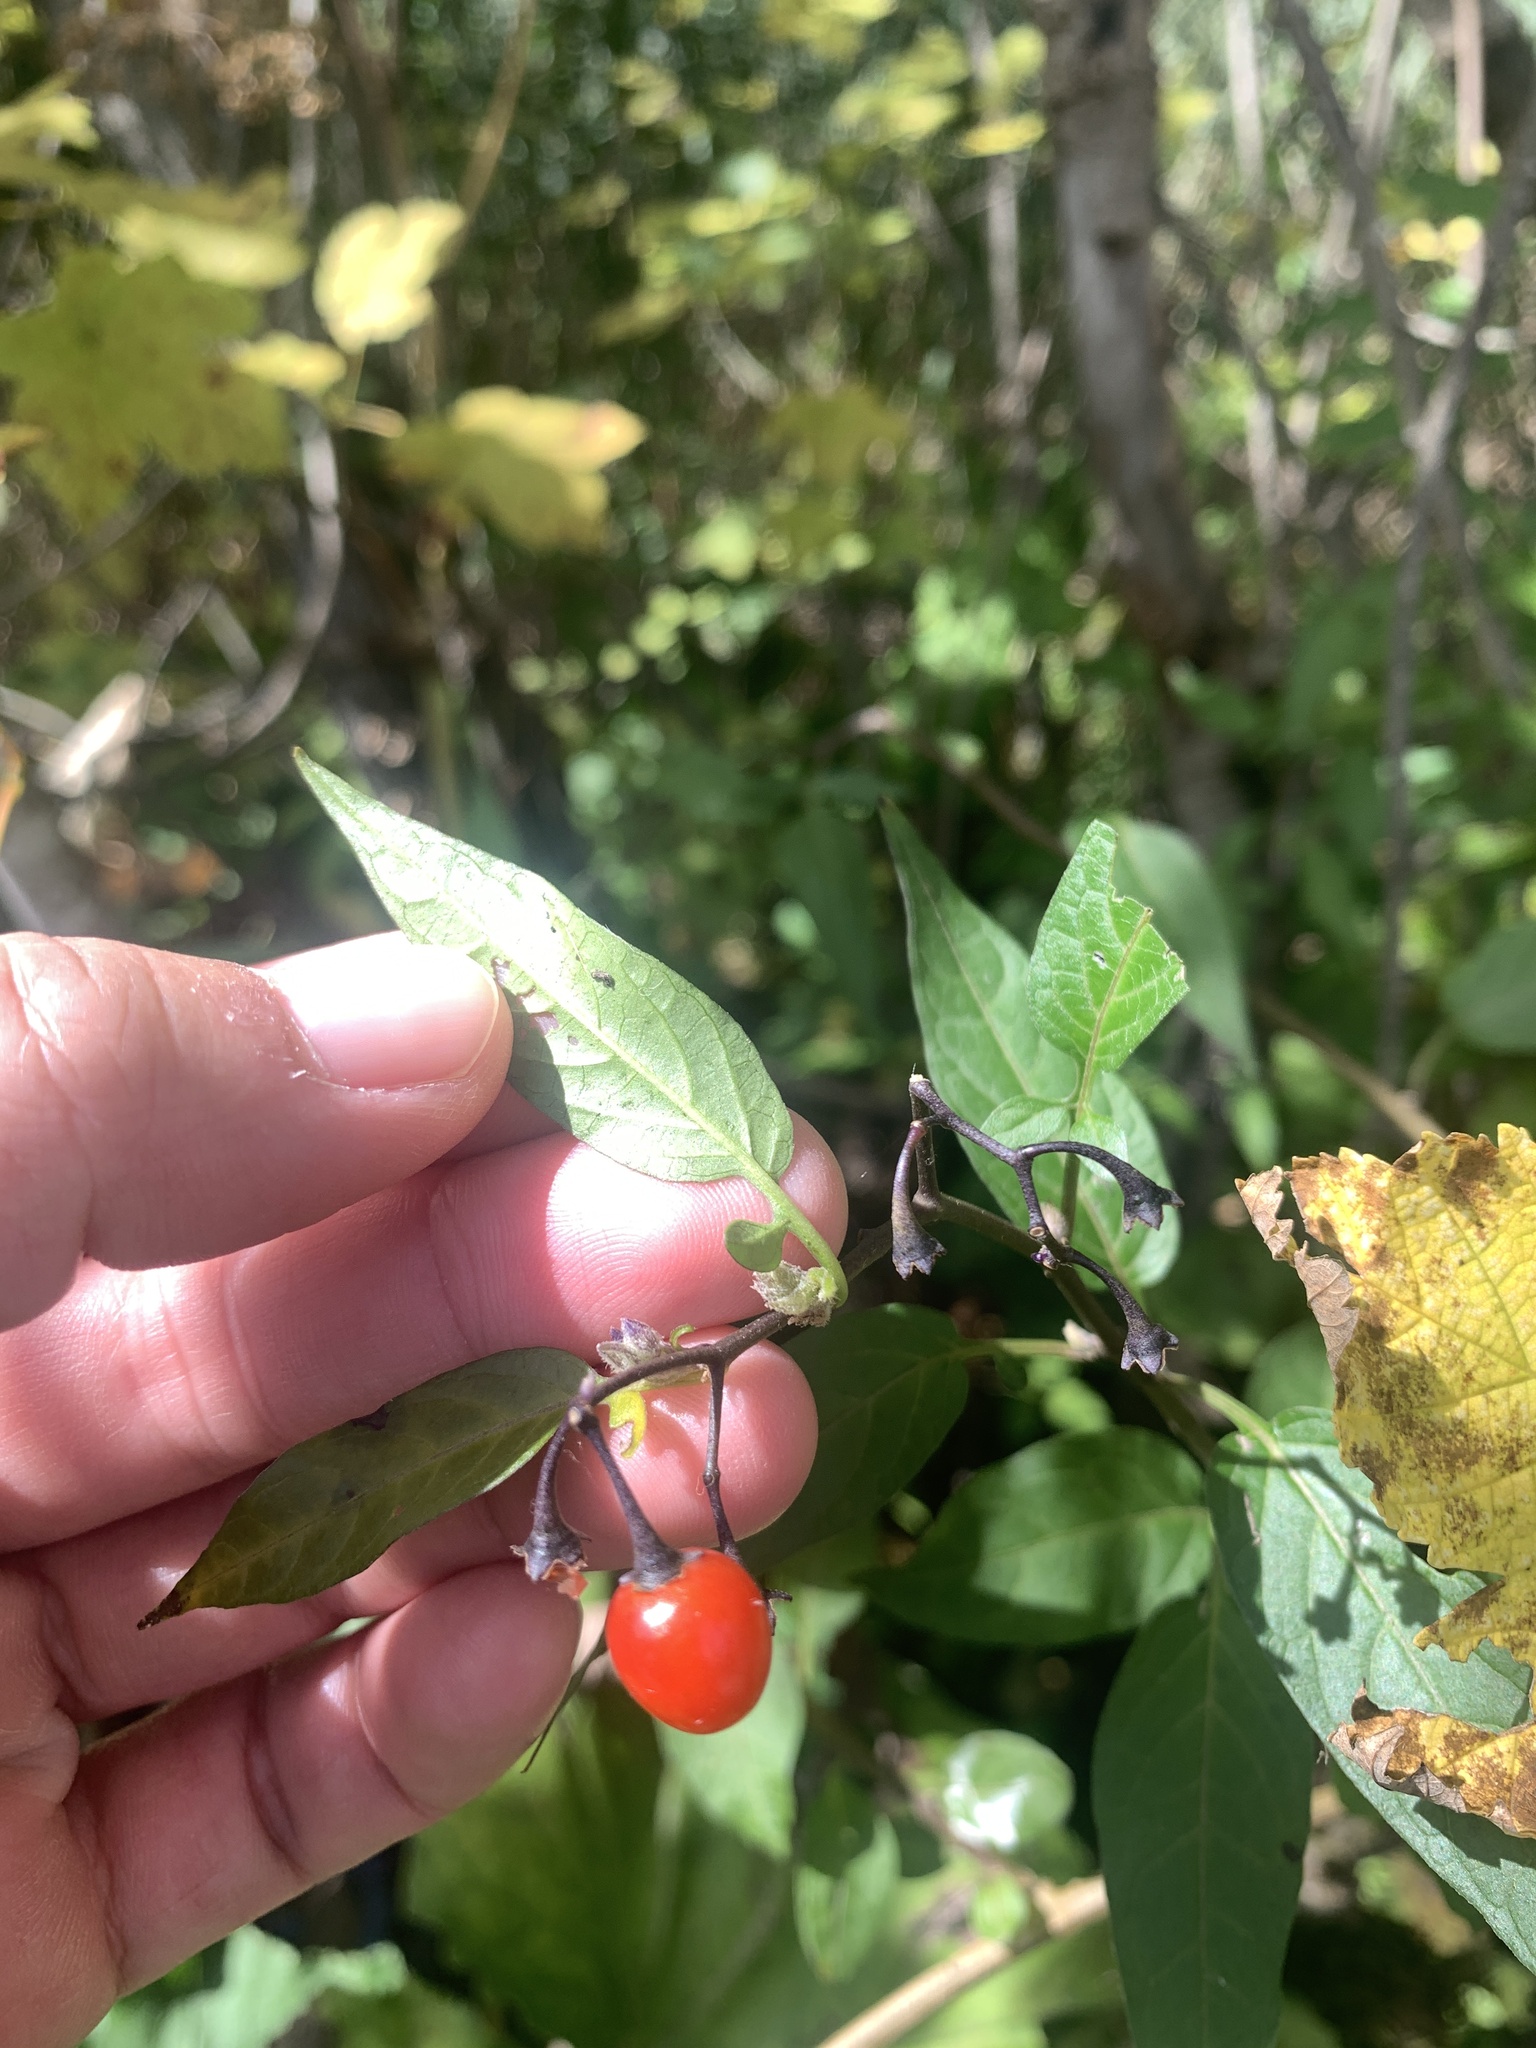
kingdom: Plantae
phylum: Tracheophyta
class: Magnoliopsida
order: Solanales
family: Solanaceae
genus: Solanum
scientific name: Solanum dulcamara
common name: Climbing nightshade
